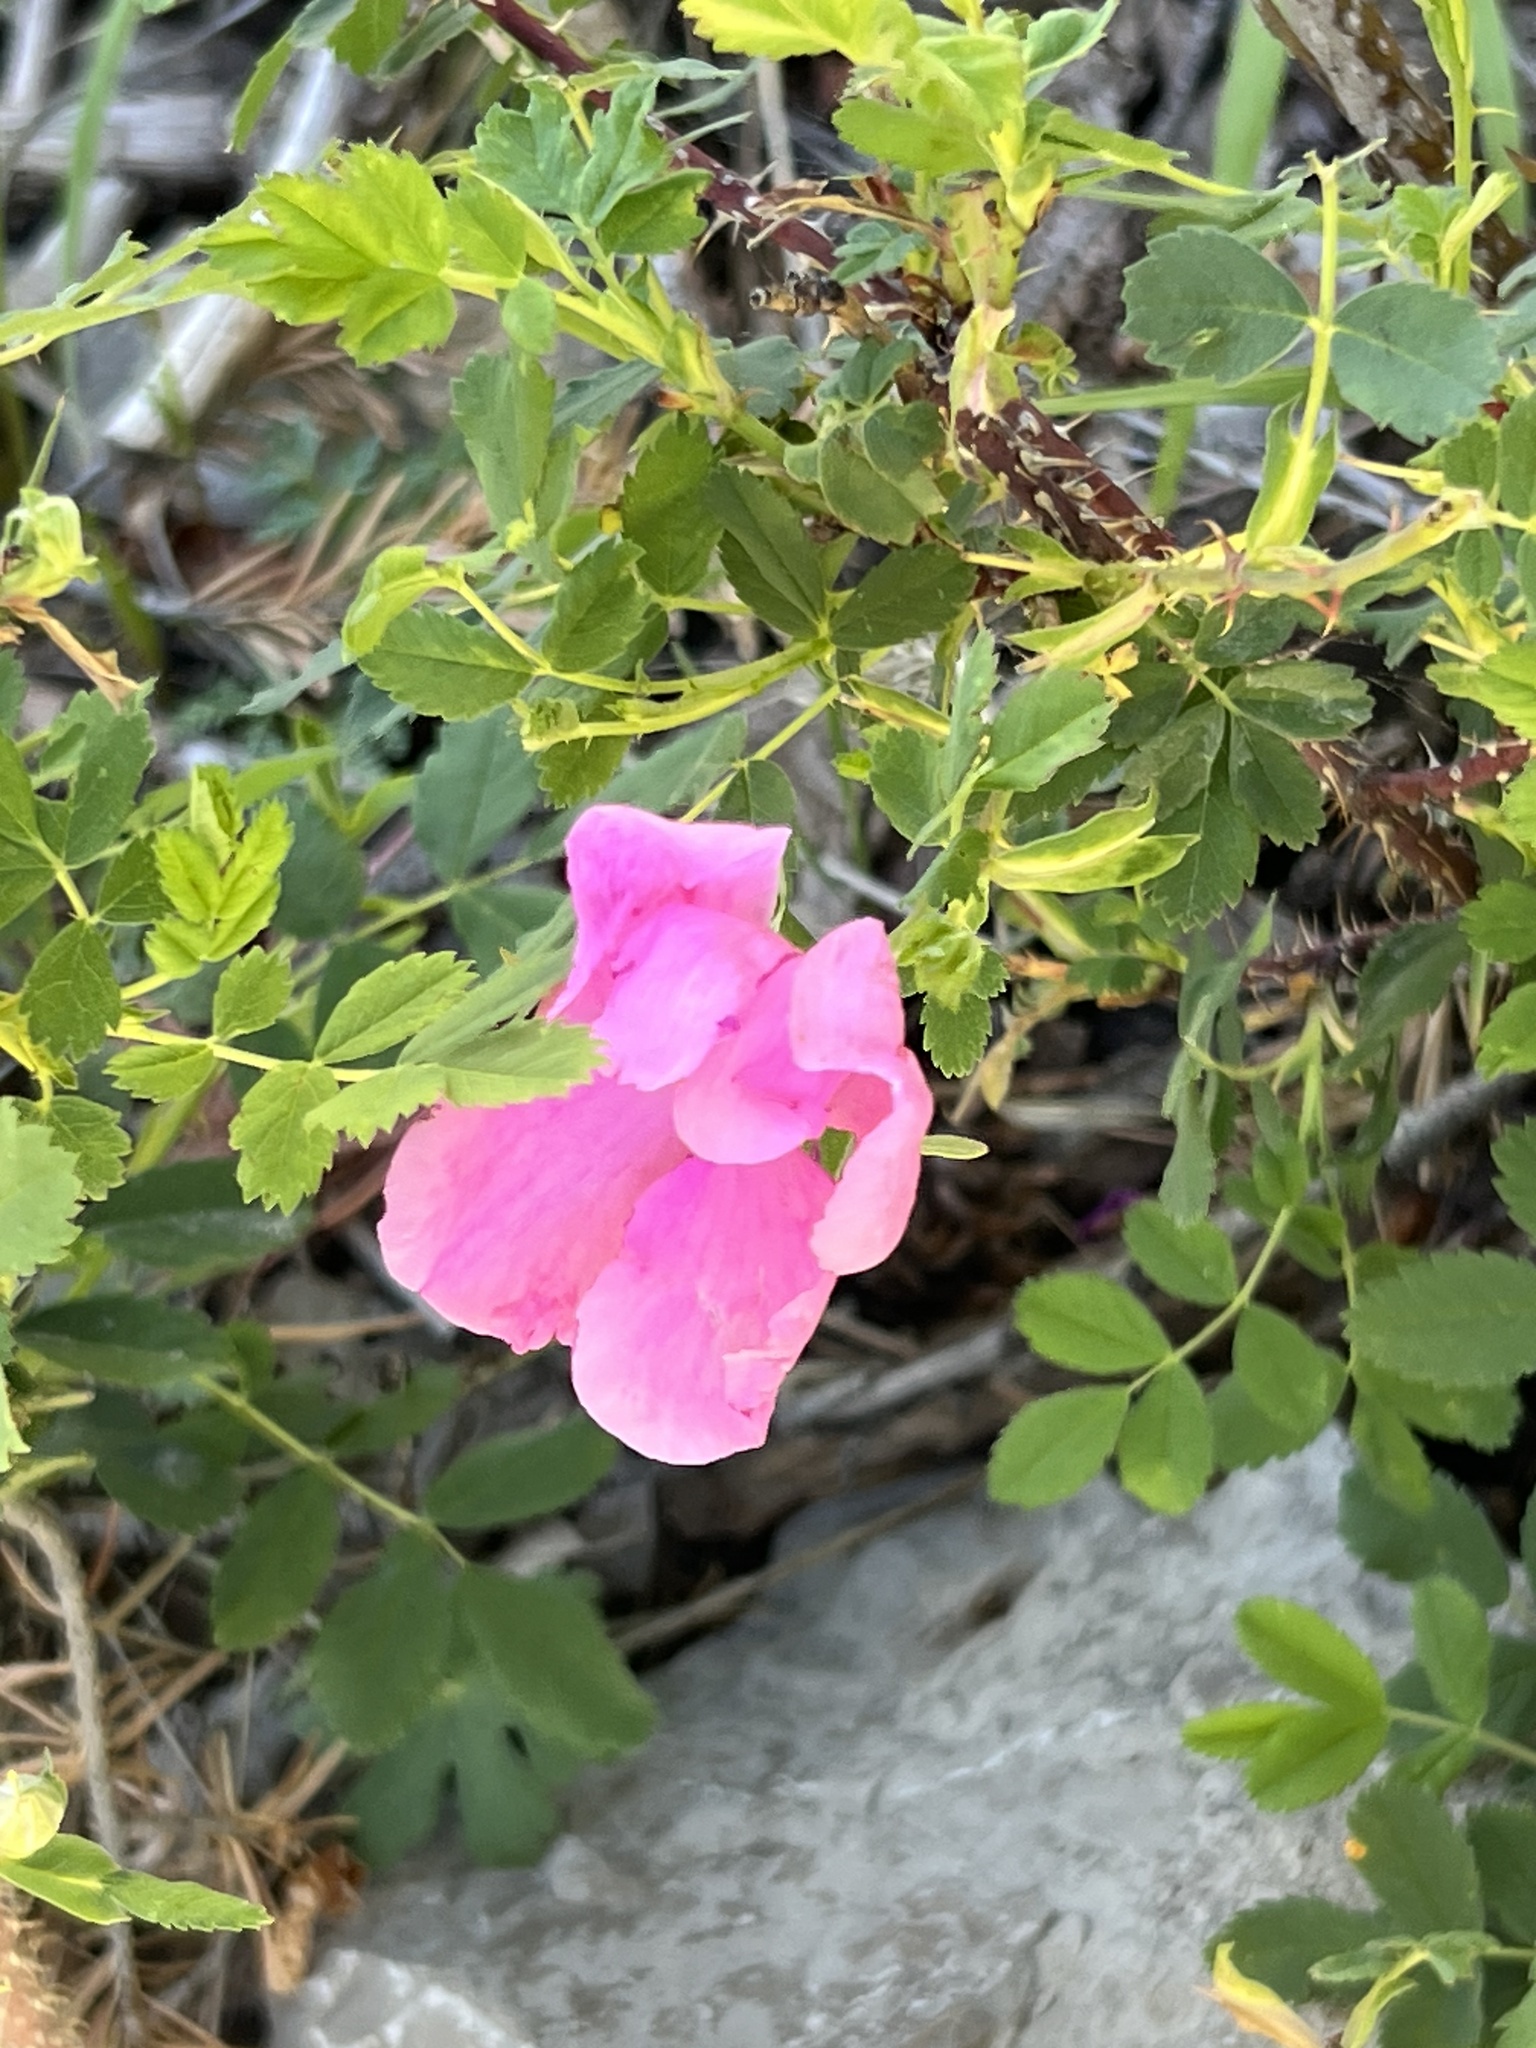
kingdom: Plantae
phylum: Tracheophyta
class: Magnoliopsida
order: Rosales
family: Rosaceae
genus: Rosa
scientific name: Rosa woodsii
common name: Woods's rose
